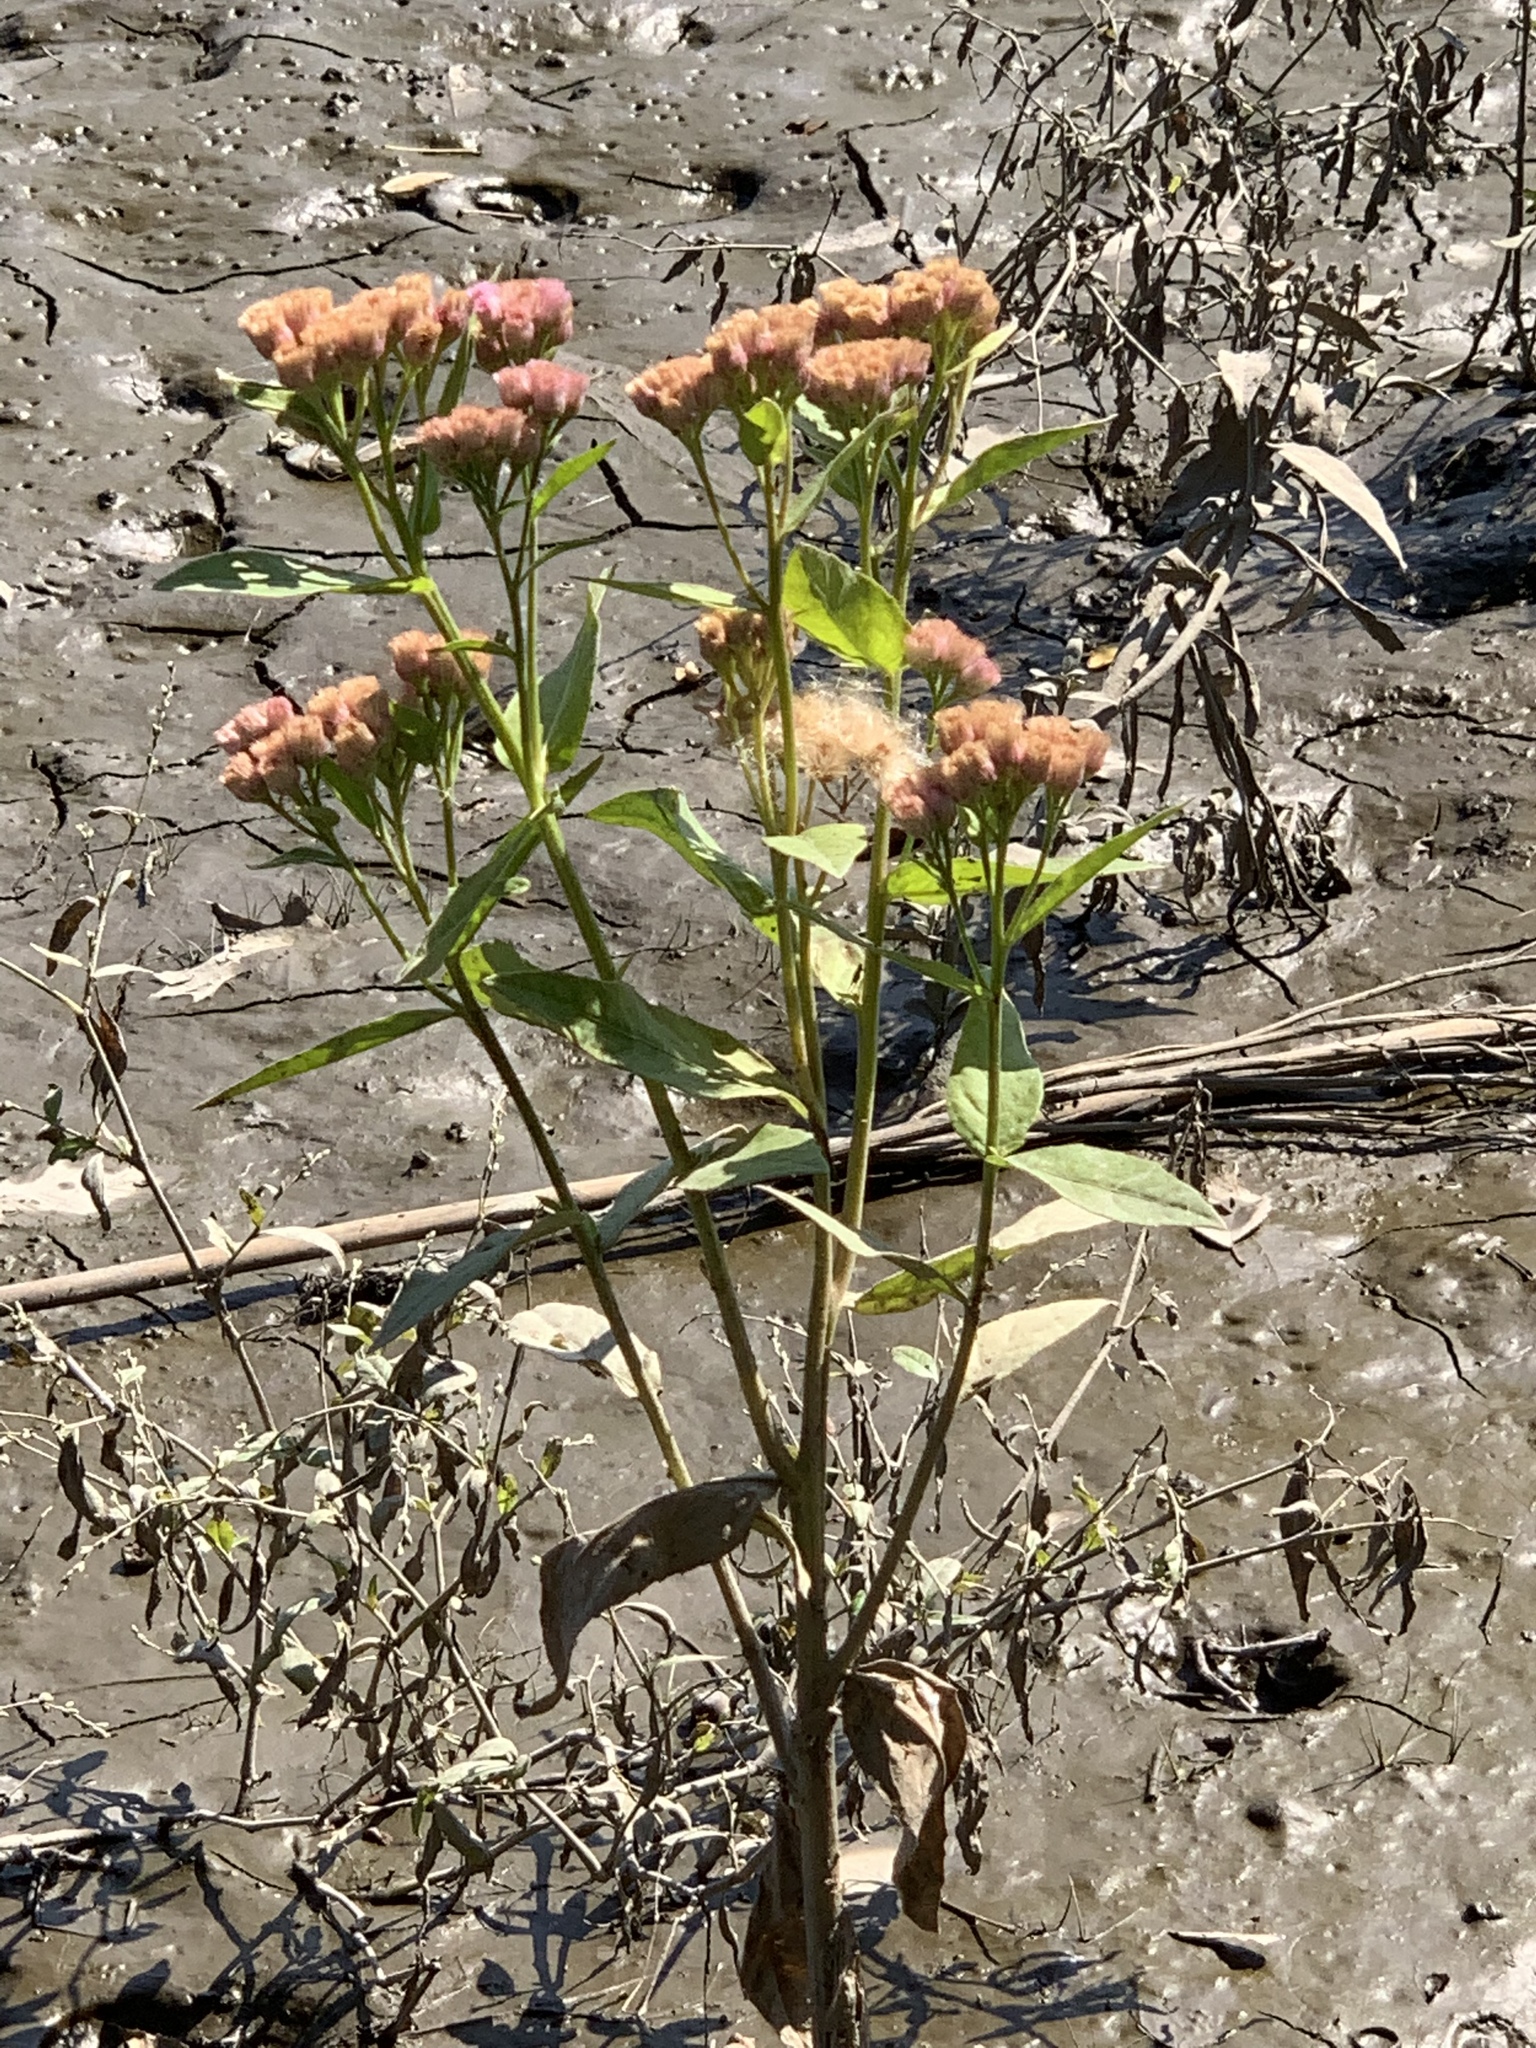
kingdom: Plantae
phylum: Tracheophyta
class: Magnoliopsida
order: Asterales
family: Asteraceae
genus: Pluchea
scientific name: Pluchea odorata
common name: Saltmarsh fleabane
